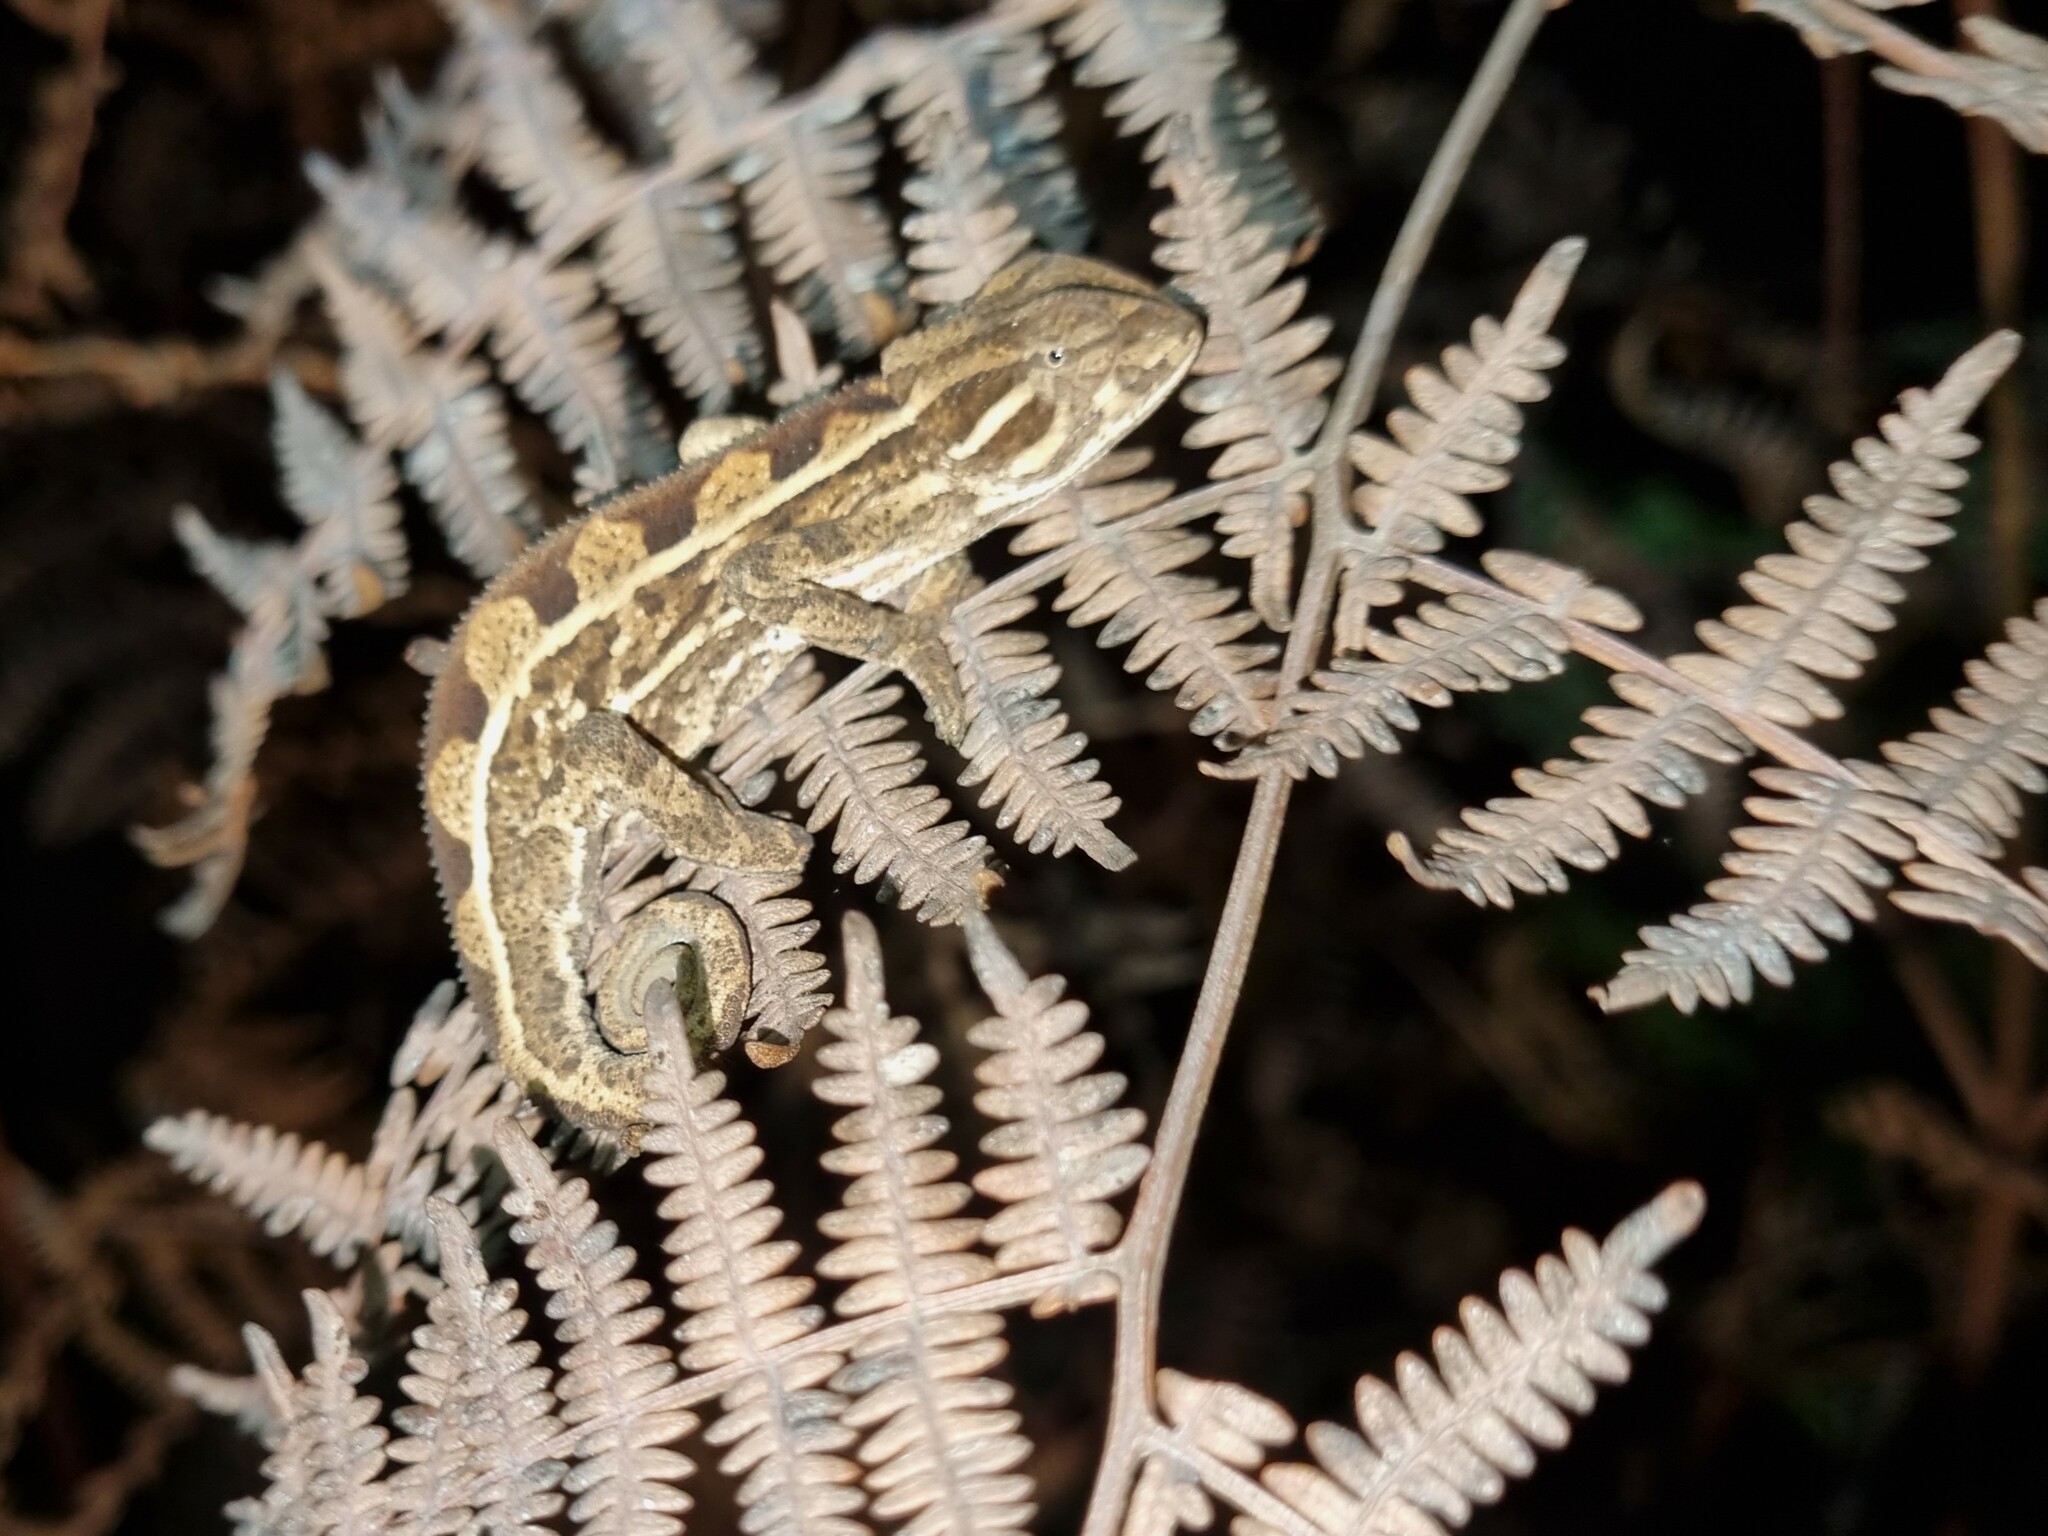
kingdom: Animalia
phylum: Chordata
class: Squamata
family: Chamaeleonidae
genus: Trioceros
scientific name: Trioceros goetzei
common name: Ilolo chameleon
